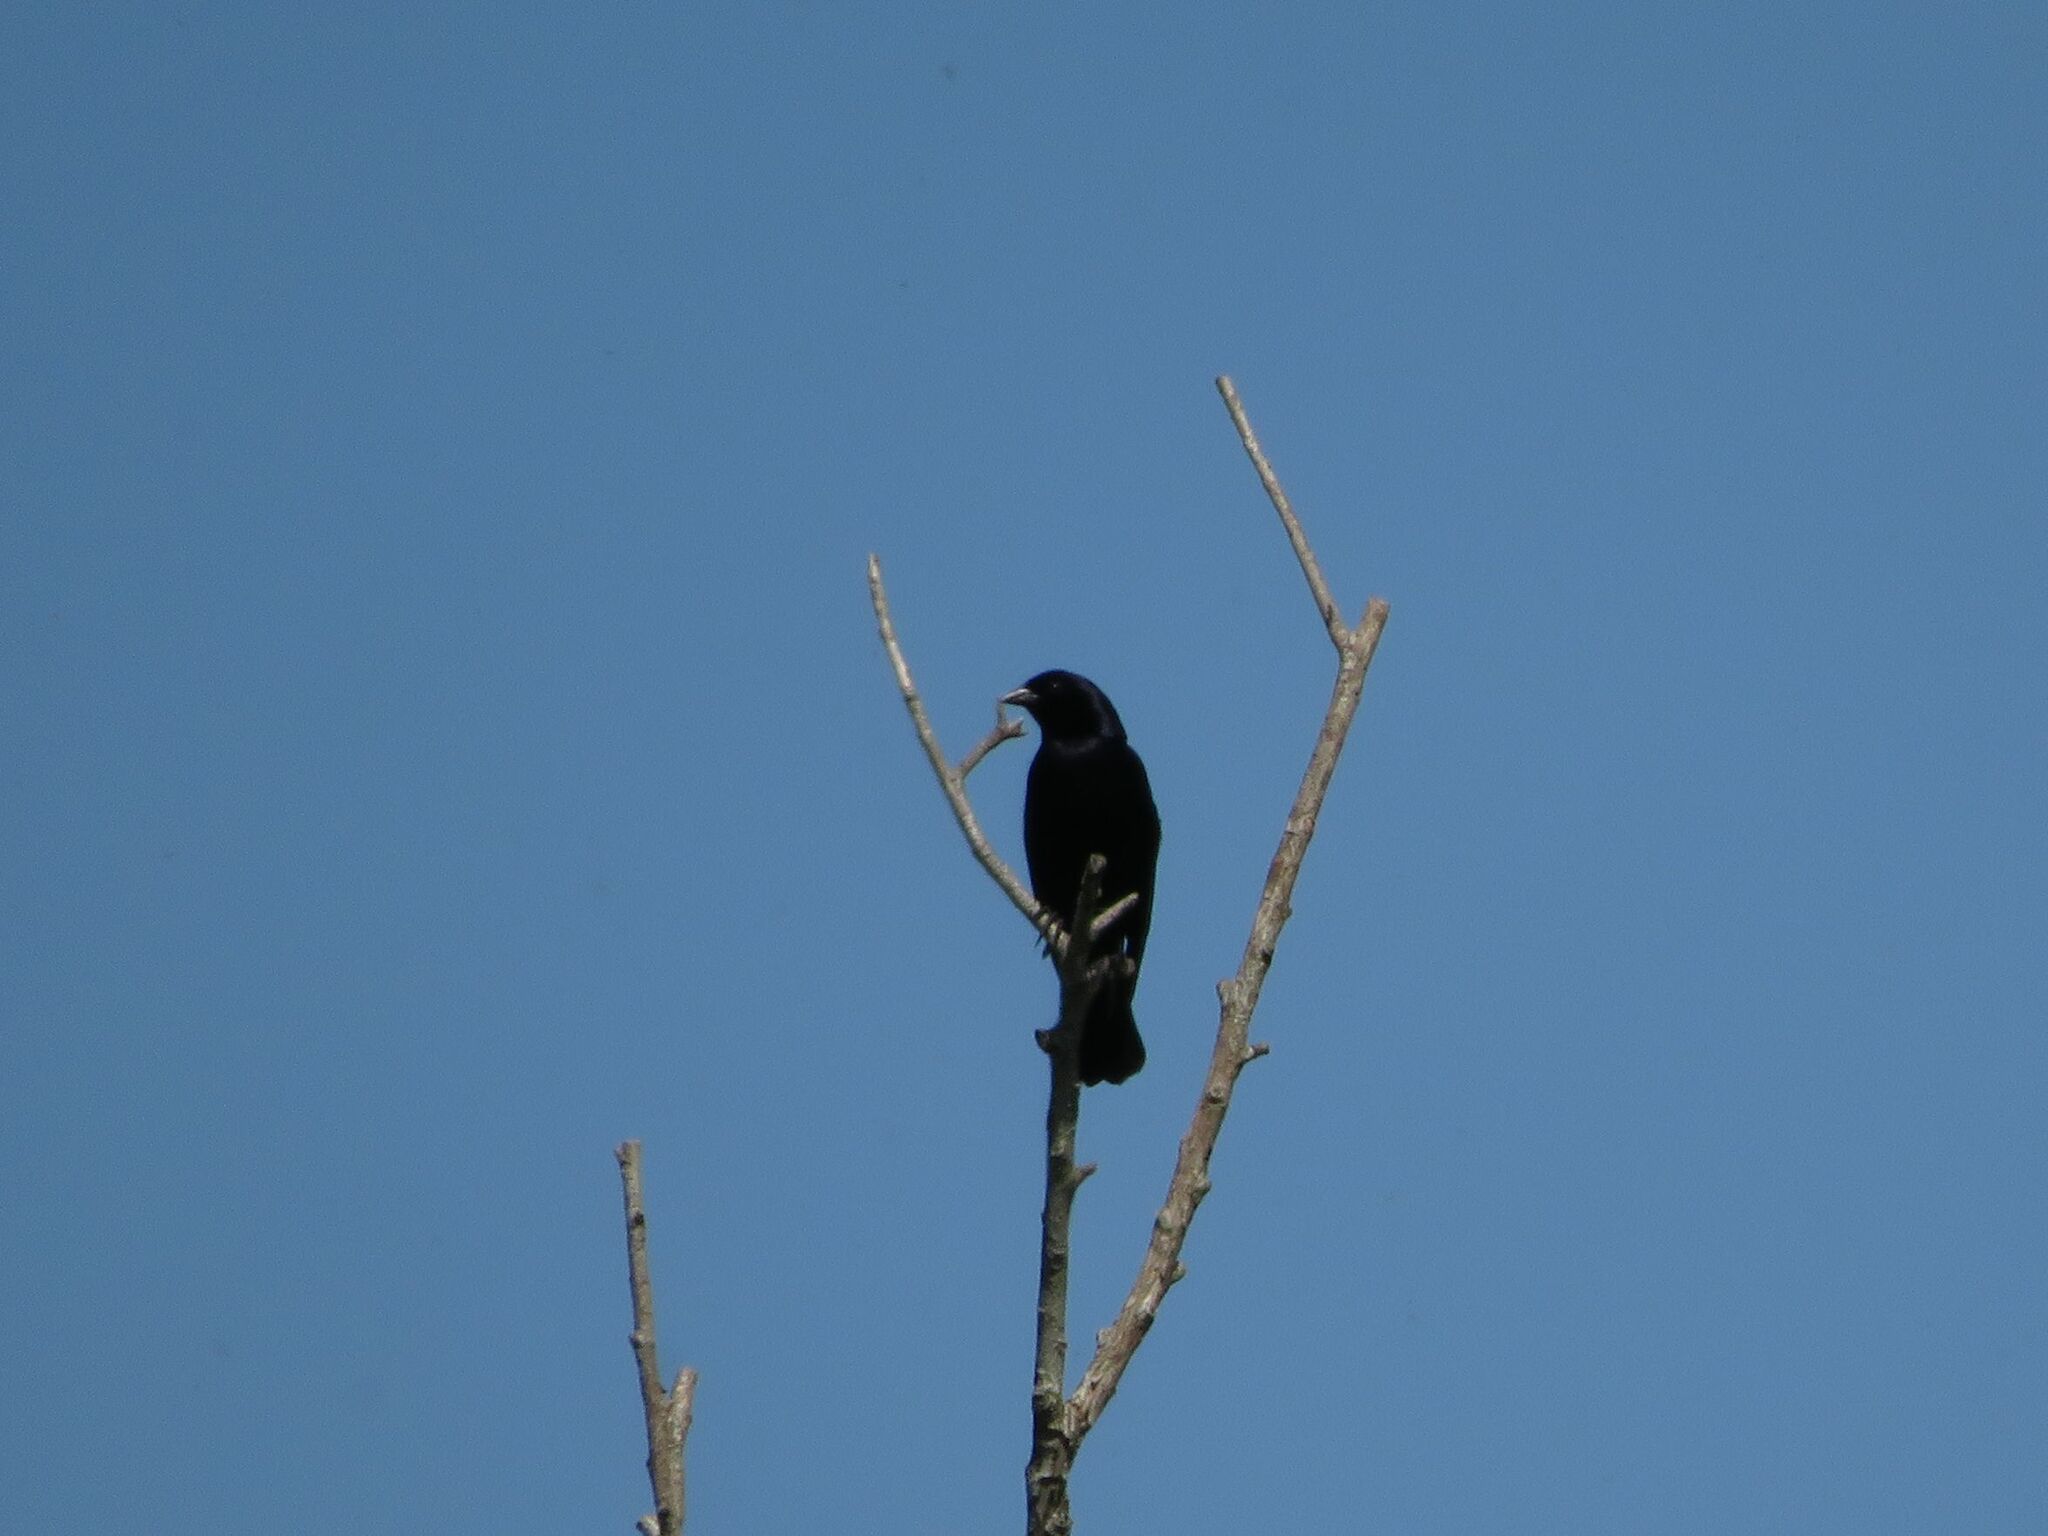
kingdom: Animalia
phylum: Chordata
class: Aves
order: Passeriformes
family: Icteridae
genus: Molothrus
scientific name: Molothrus bonariensis
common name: Shiny cowbird
